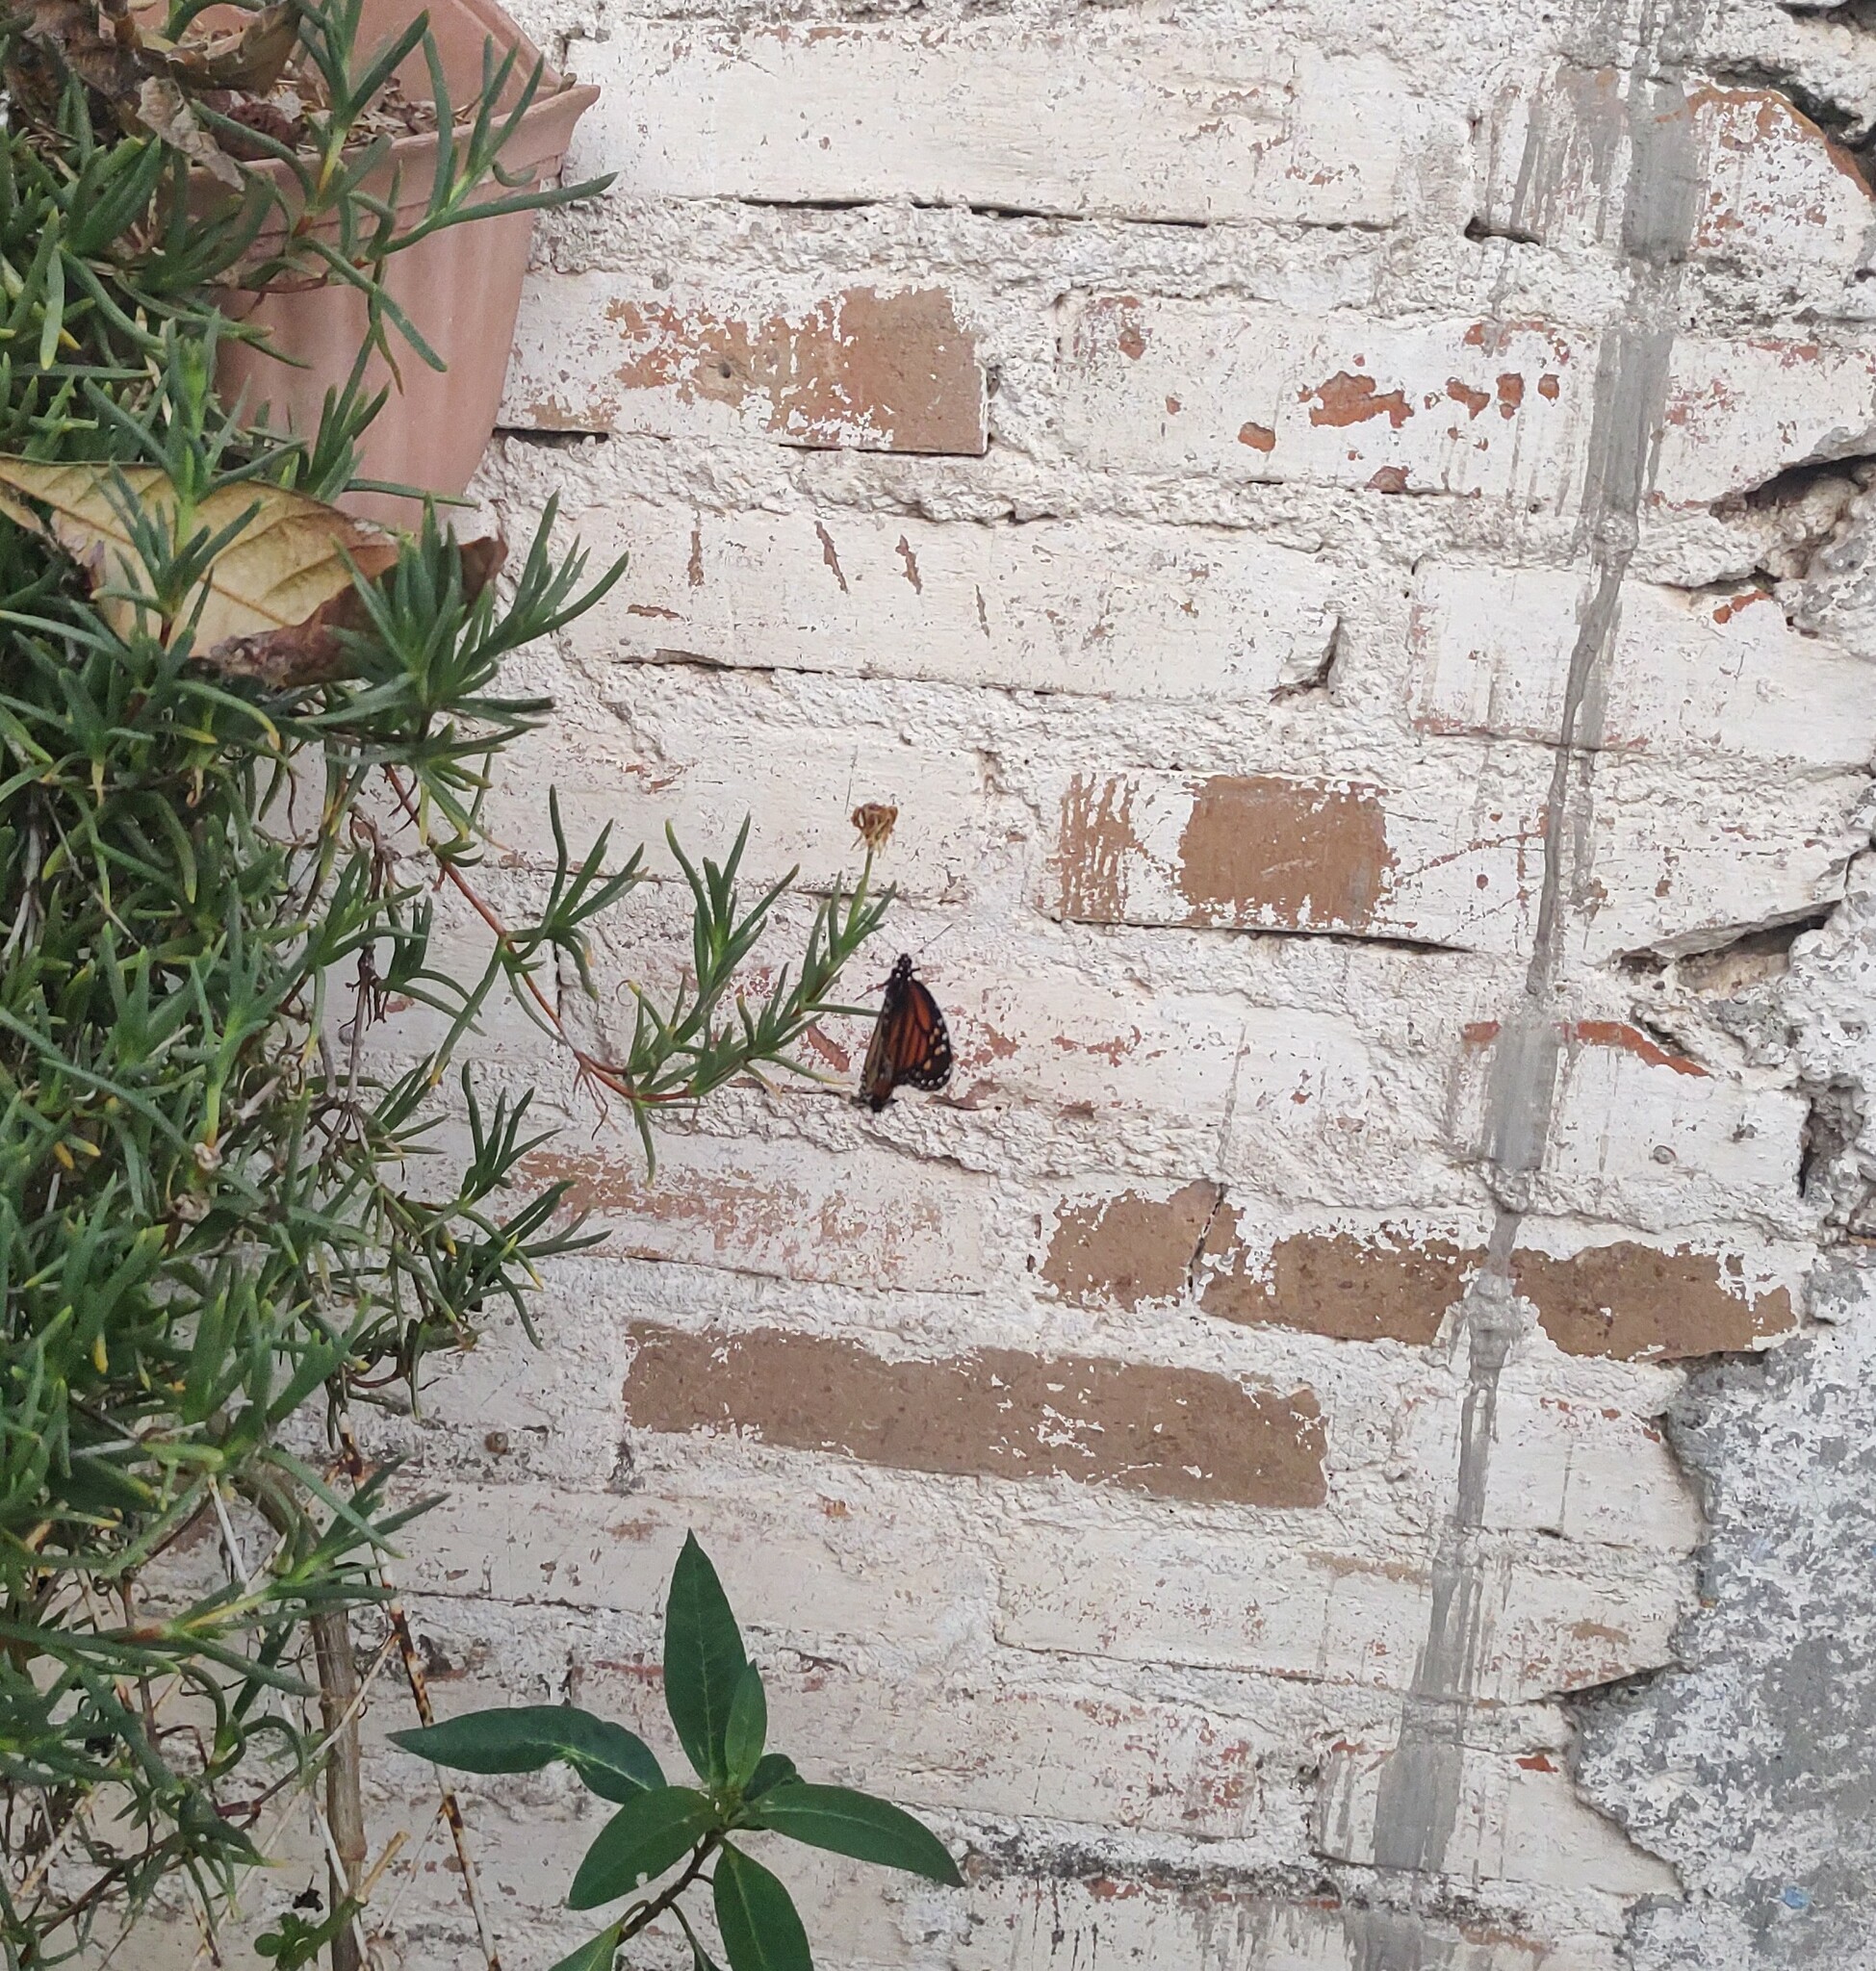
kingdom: Animalia
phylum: Arthropoda
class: Insecta
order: Lepidoptera
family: Nymphalidae
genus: Danaus
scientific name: Danaus plexippus
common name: Monarch
